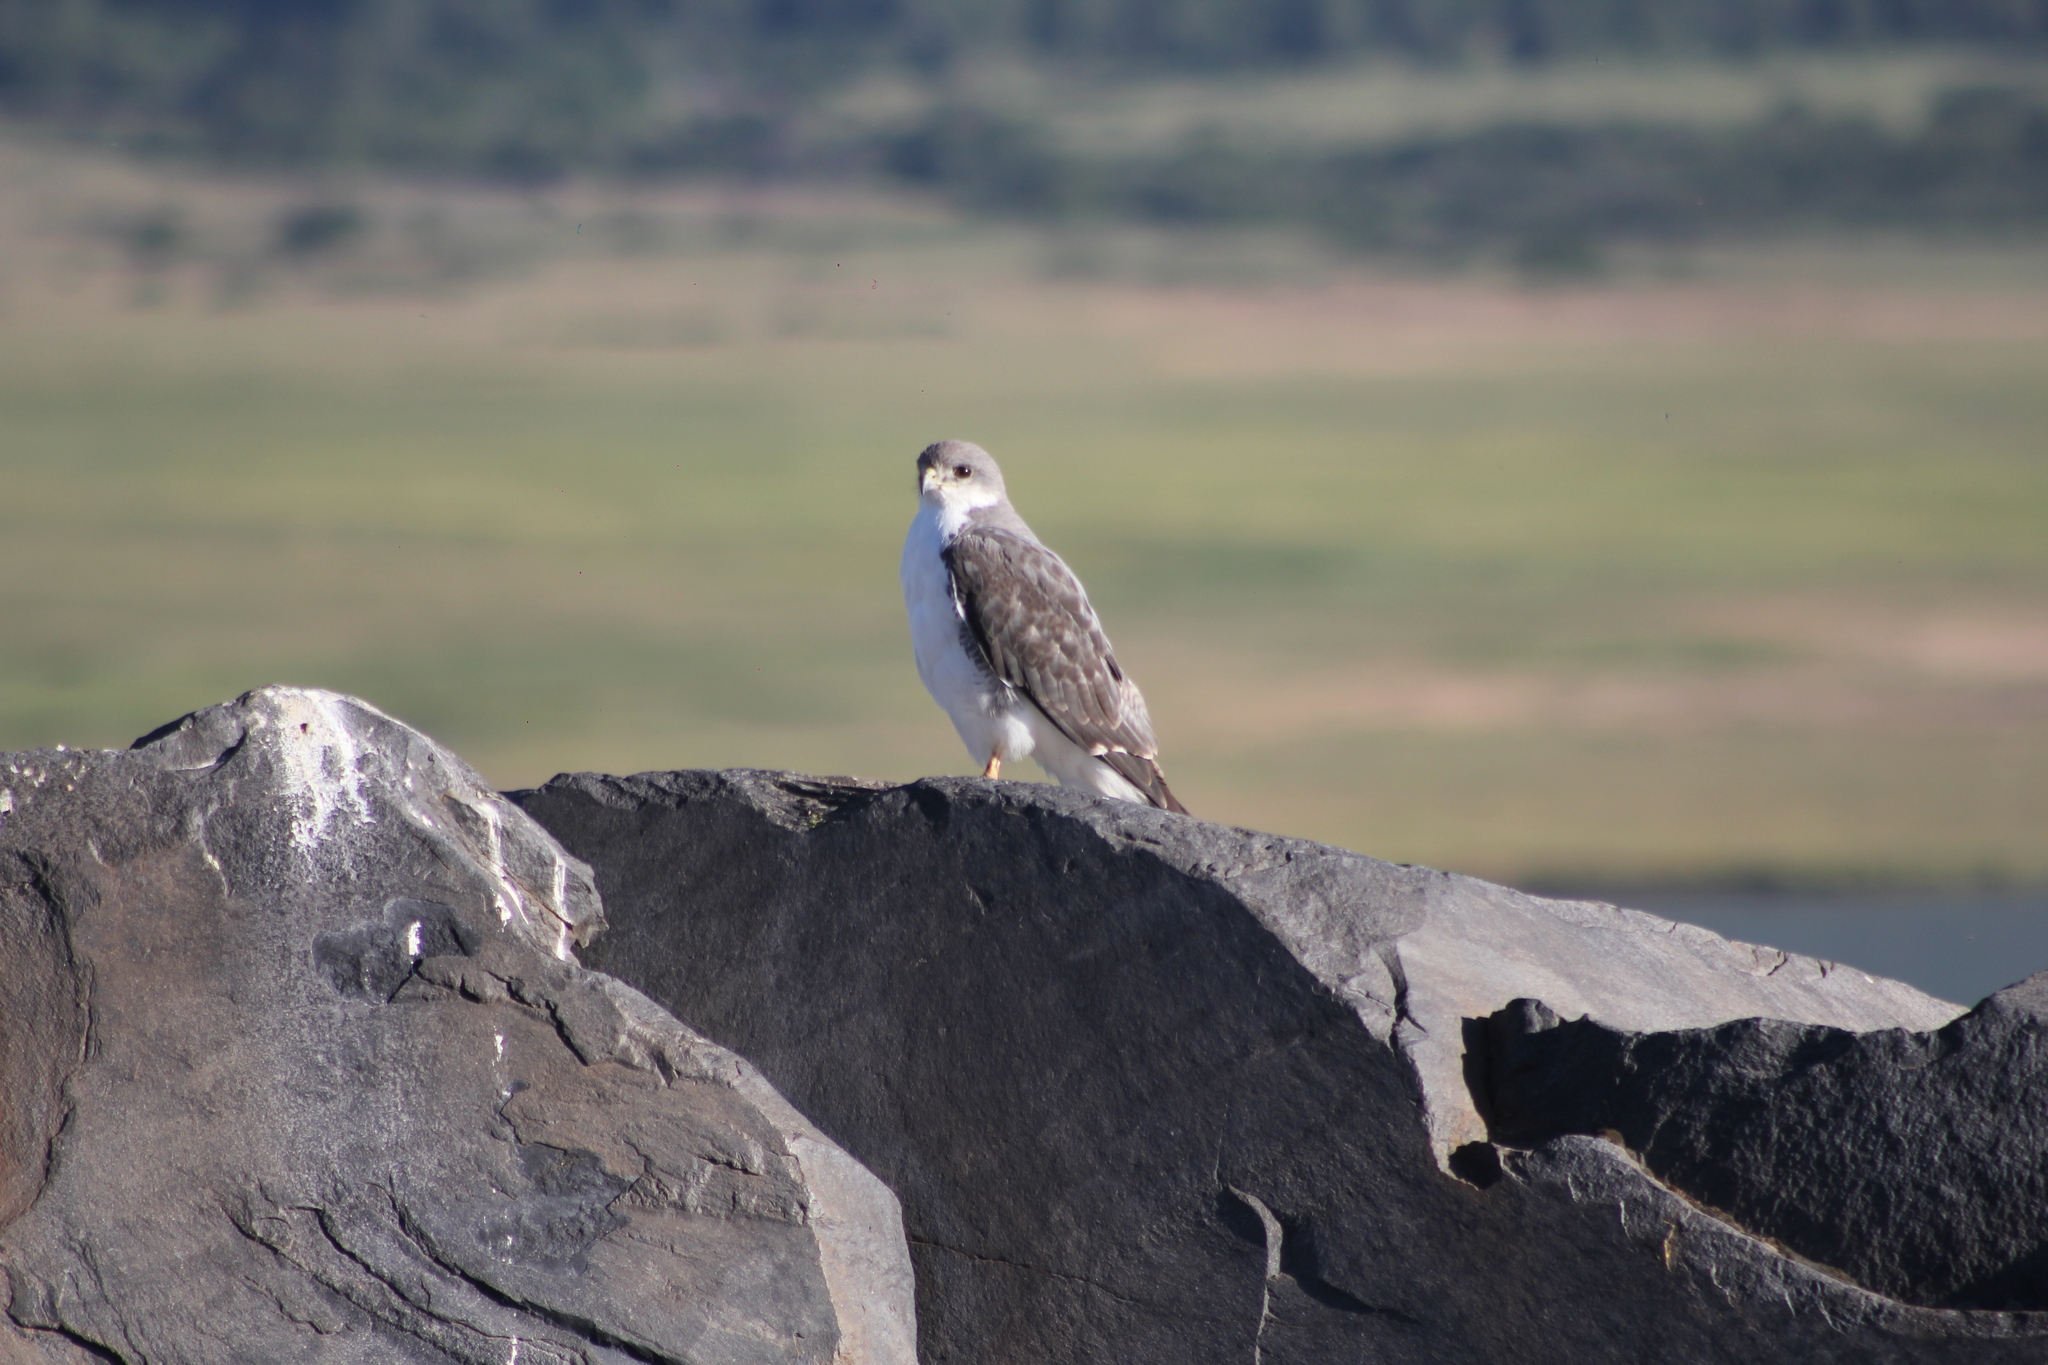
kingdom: Animalia
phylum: Chordata
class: Aves
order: Accipitriformes
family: Accipitridae
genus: Buteo
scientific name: Buteo polyosoma
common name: Variable hawk
